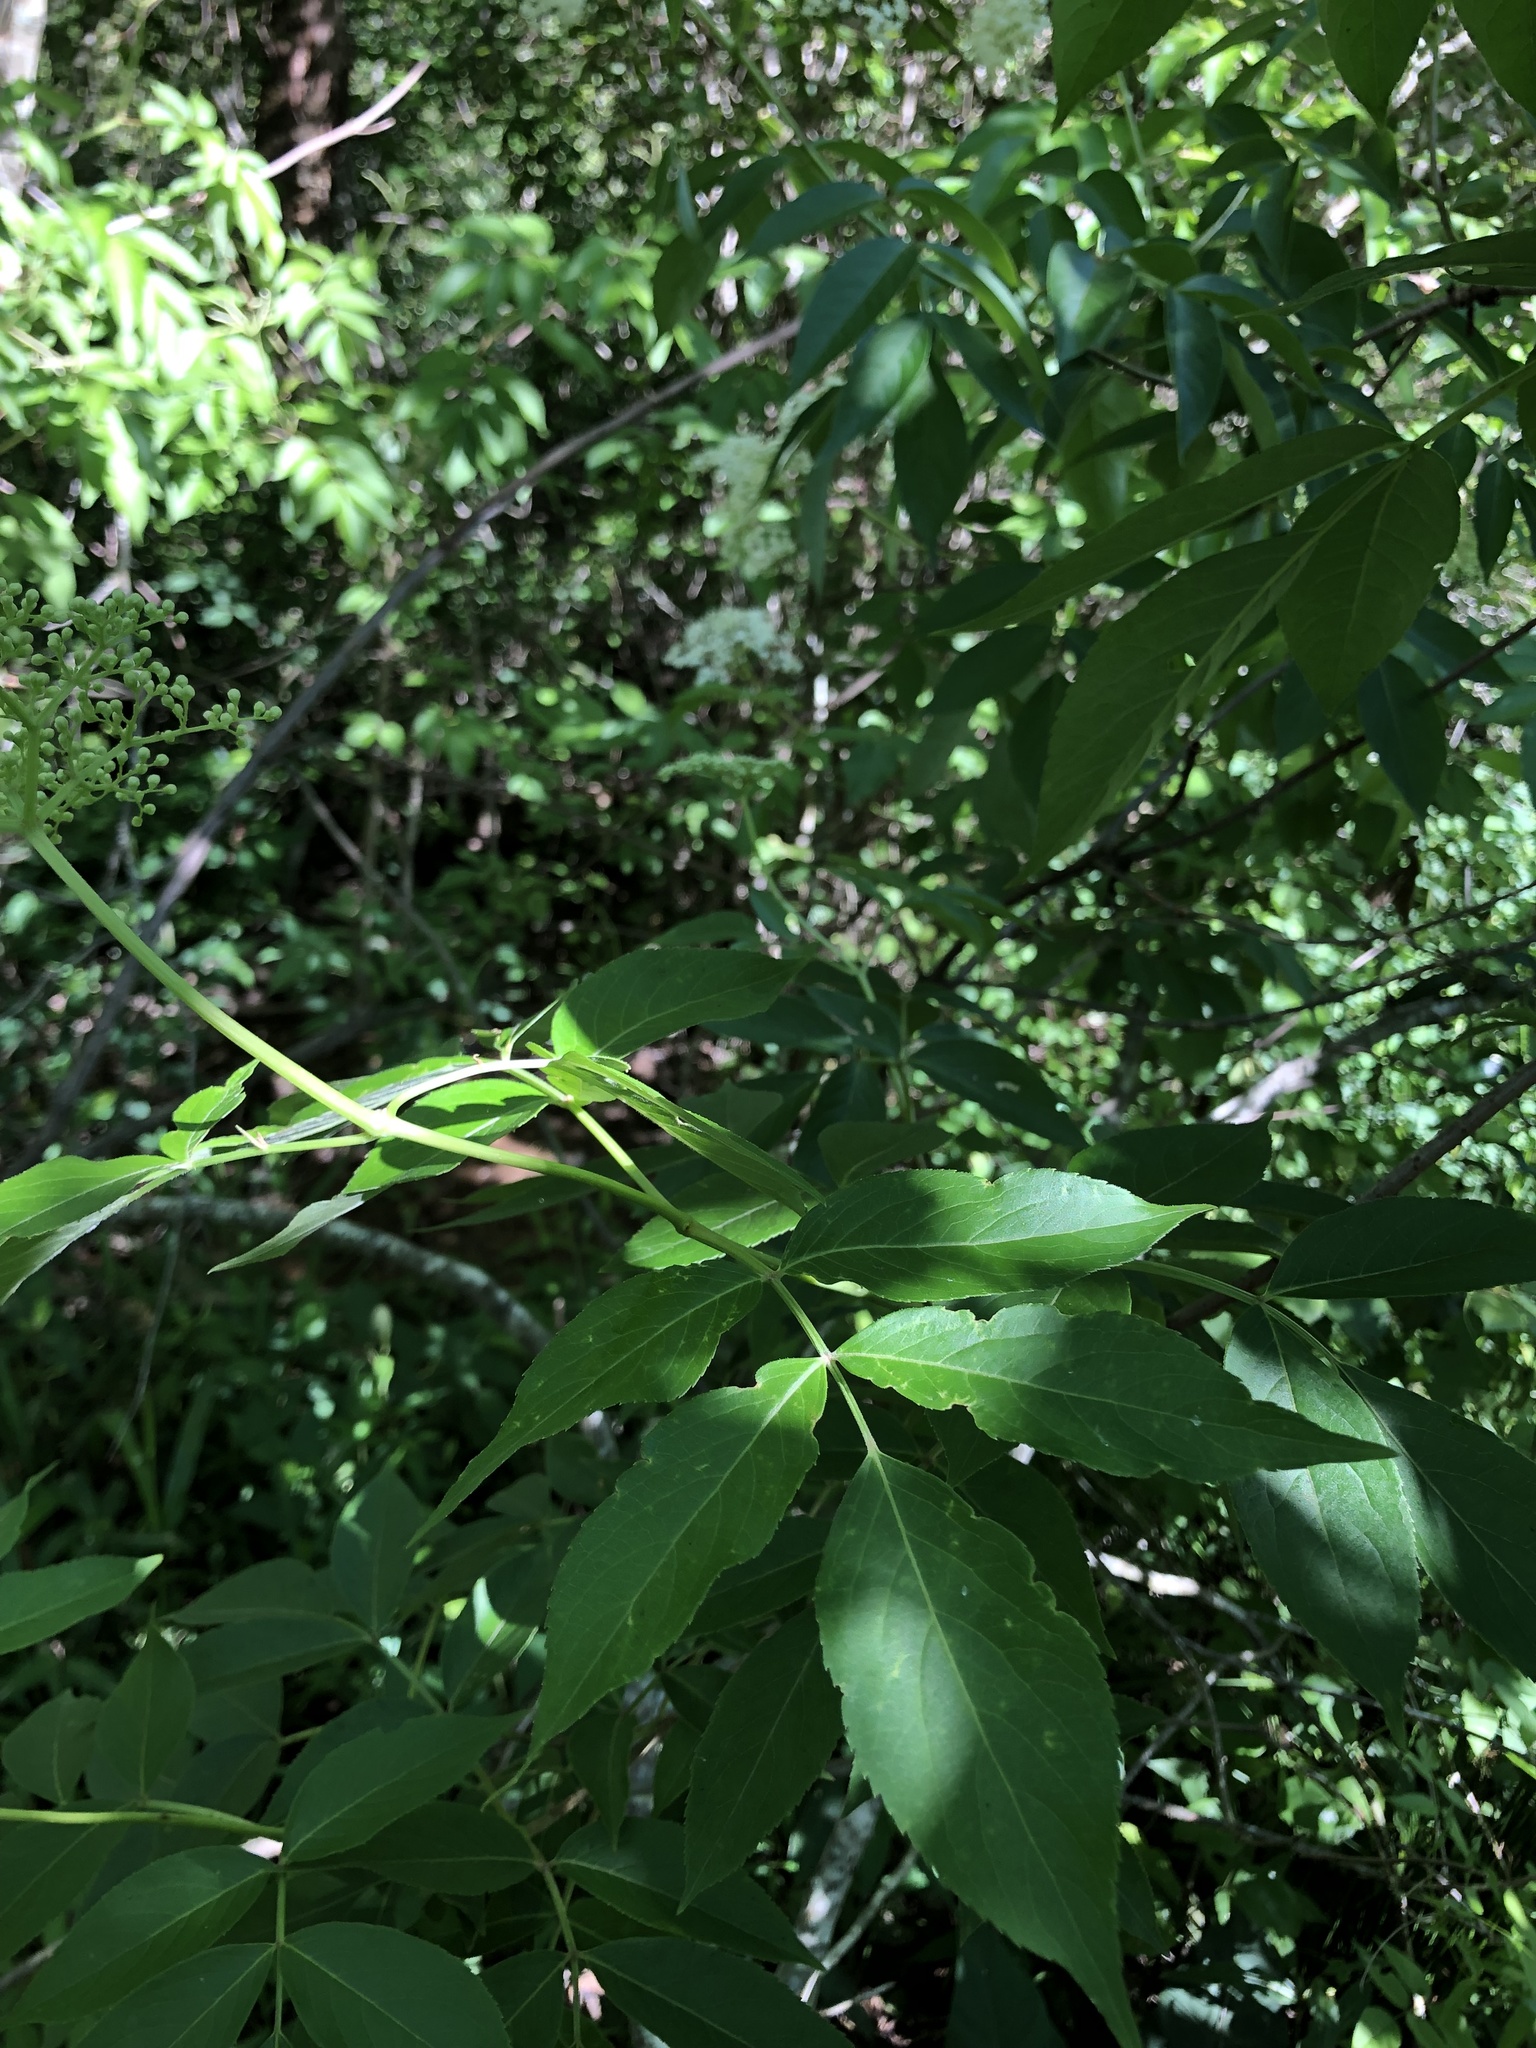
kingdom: Plantae
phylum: Tracheophyta
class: Magnoliopsida
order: Dipsacales
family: Viburnaceae
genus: Sambucus
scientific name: Sambucus canadensis
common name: American elder
